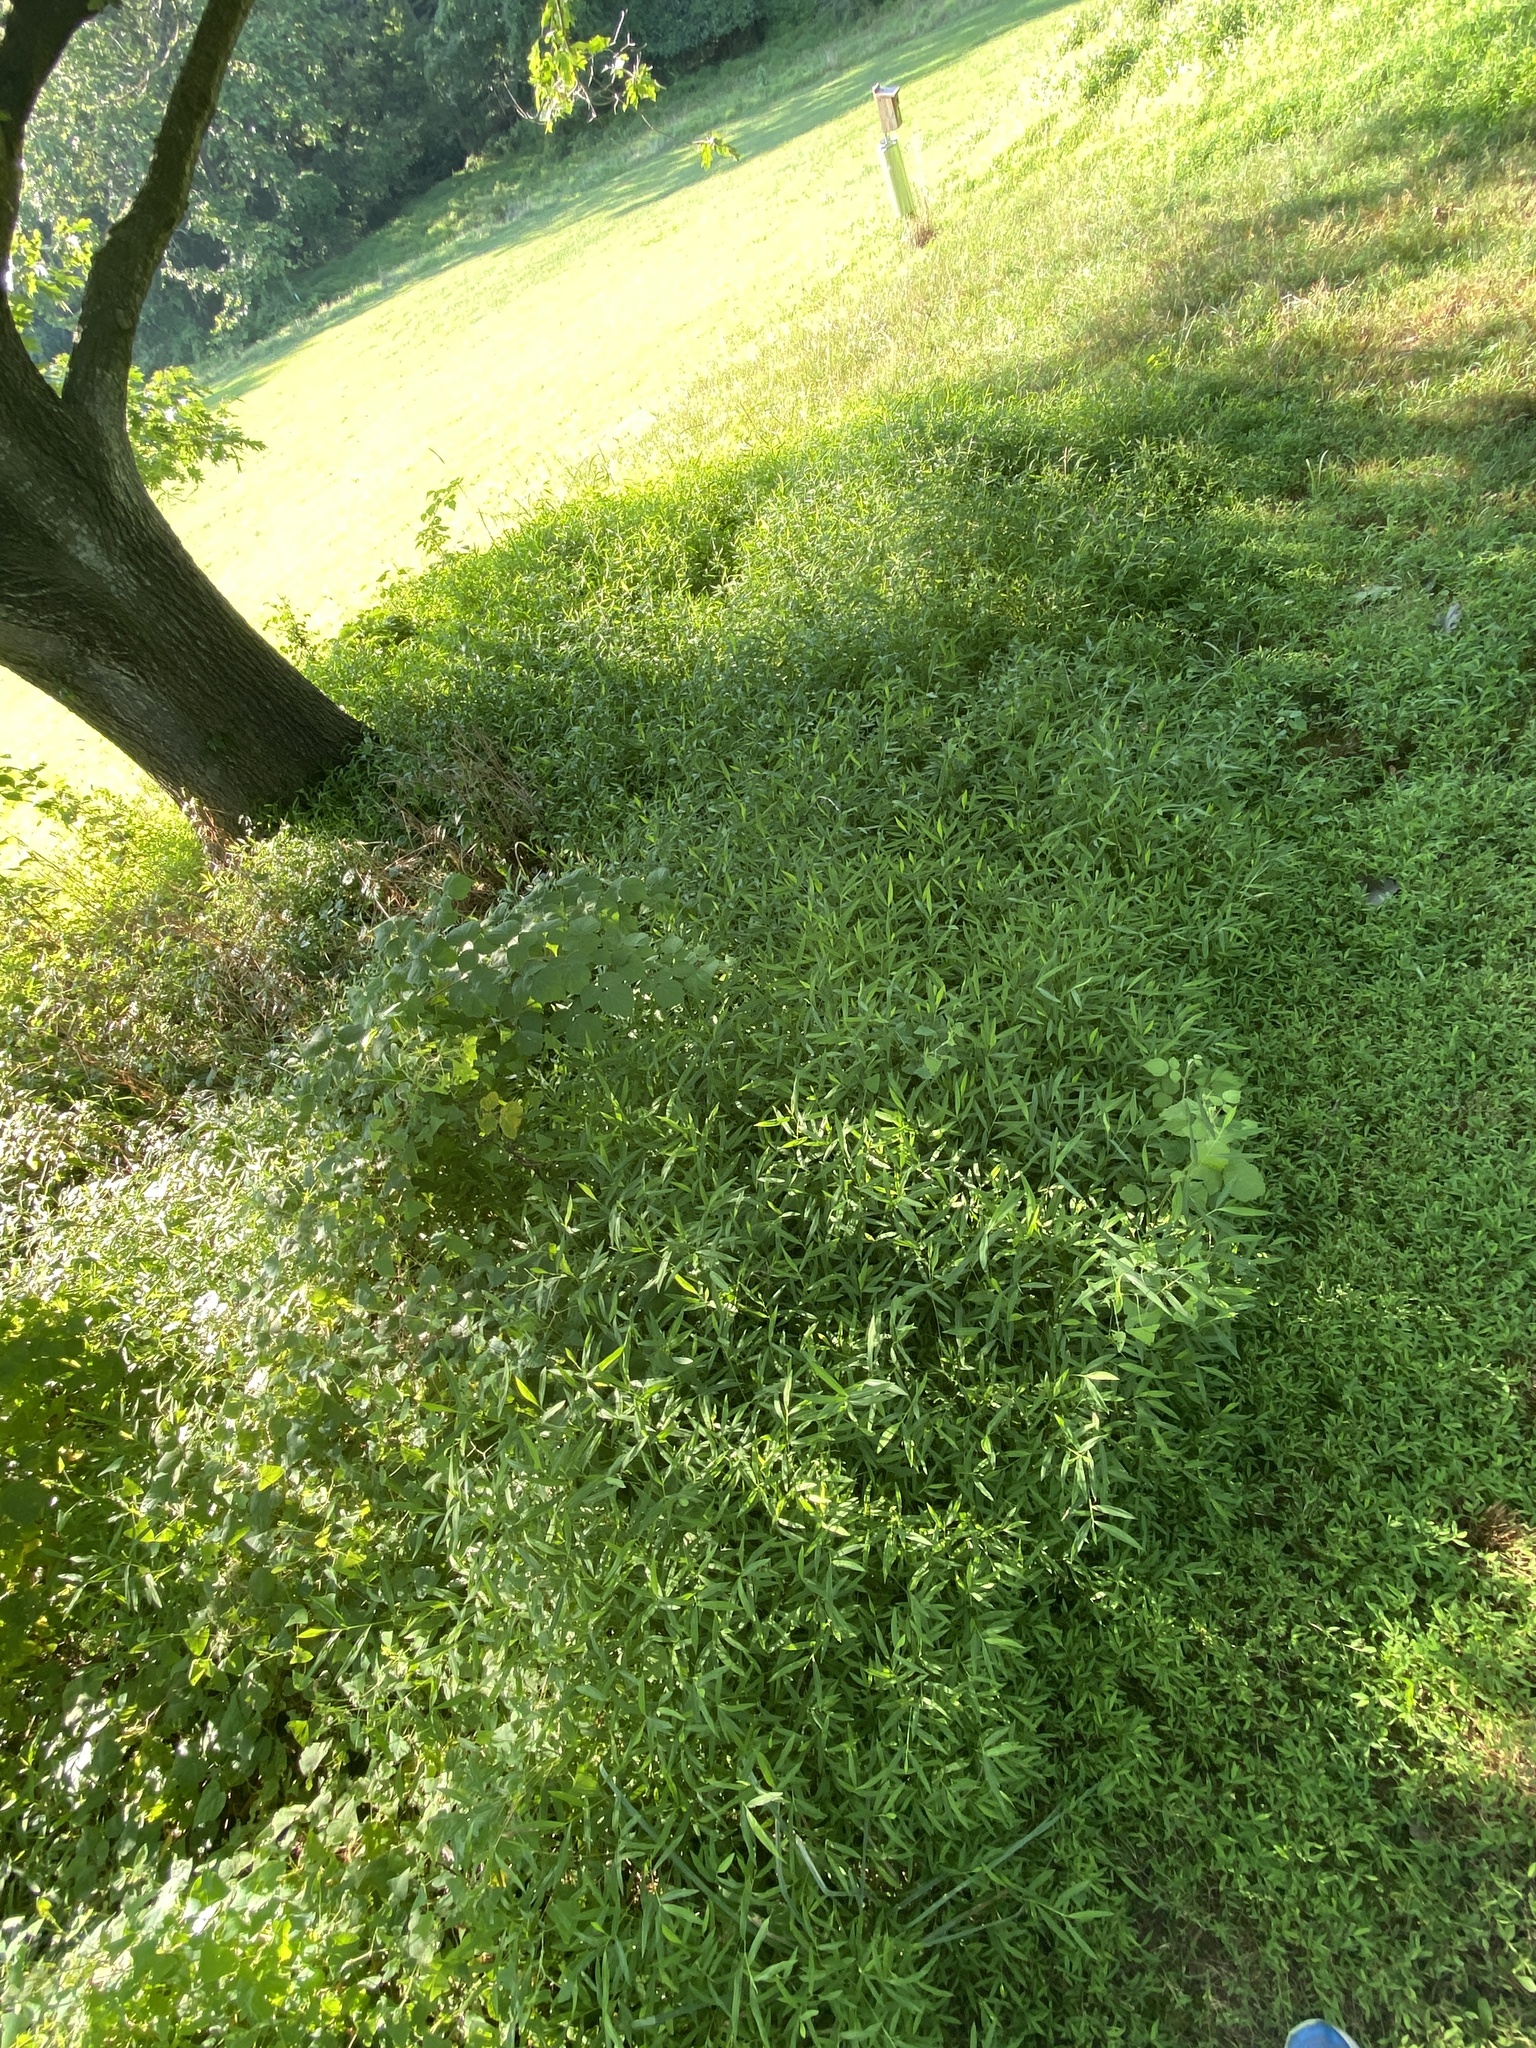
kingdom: Plantae
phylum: Tracheophyta
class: Liliopsida
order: Poales
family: Poaceae
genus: Microstegium
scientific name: Microstegium vimineum
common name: Japanese stiltgrass
